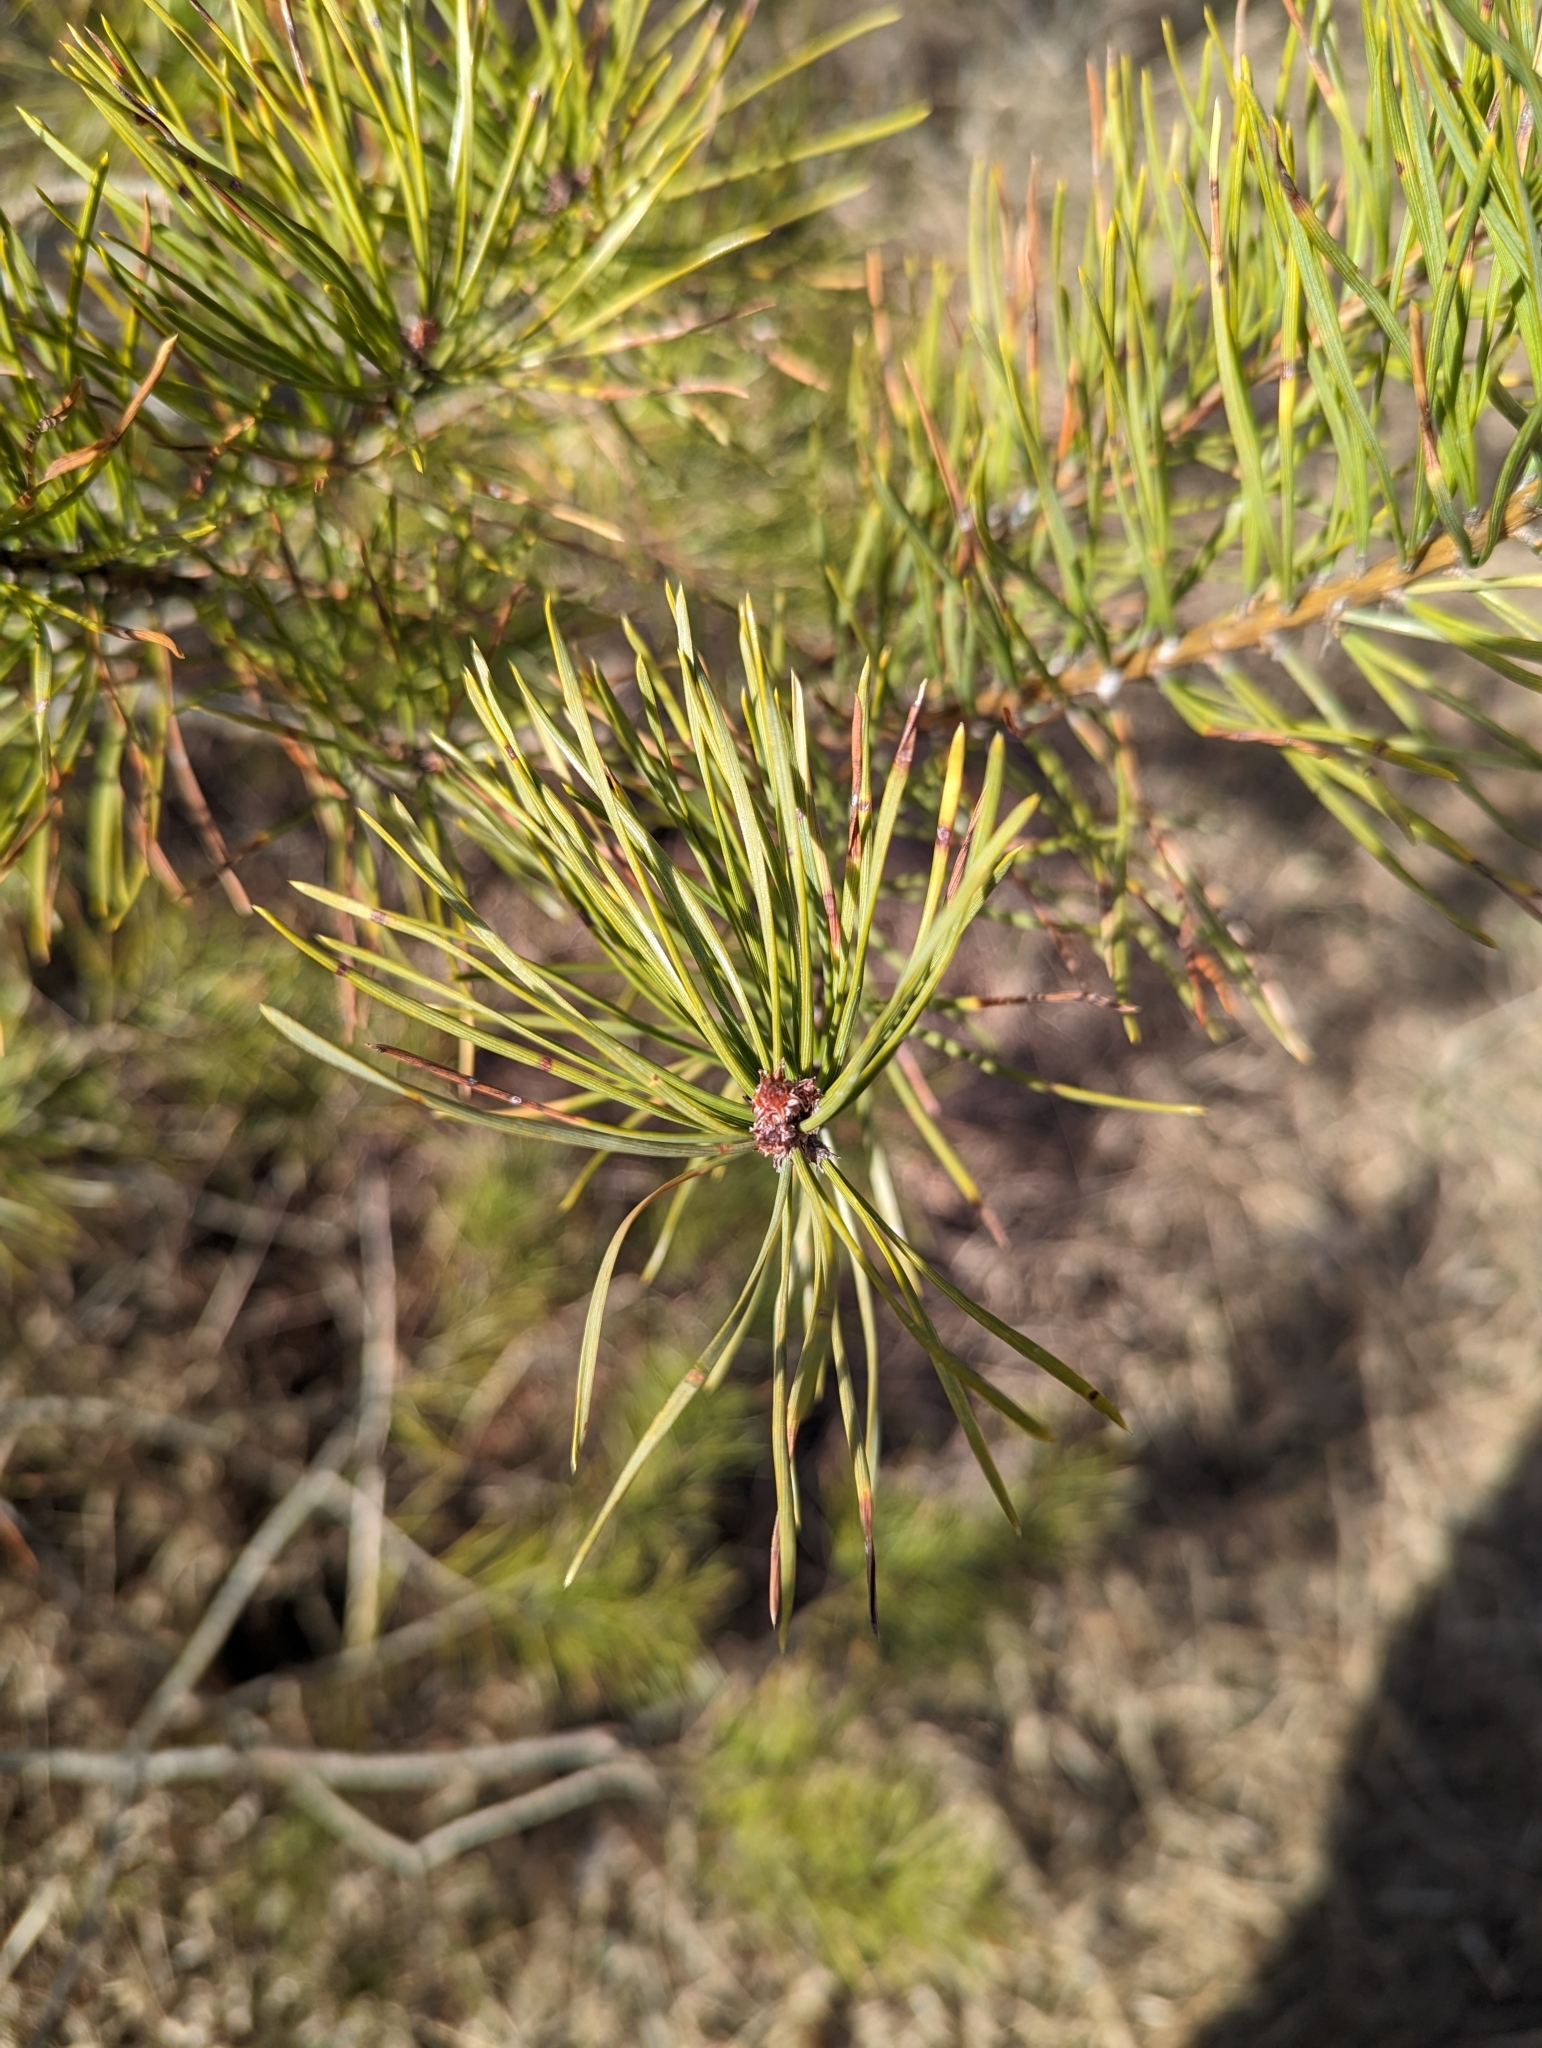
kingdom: Plantae
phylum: Tracheophyta
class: Pinopsida
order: Pinales
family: Pinaceae
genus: Pinus
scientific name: Pinus sylvestris
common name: Scots pine
